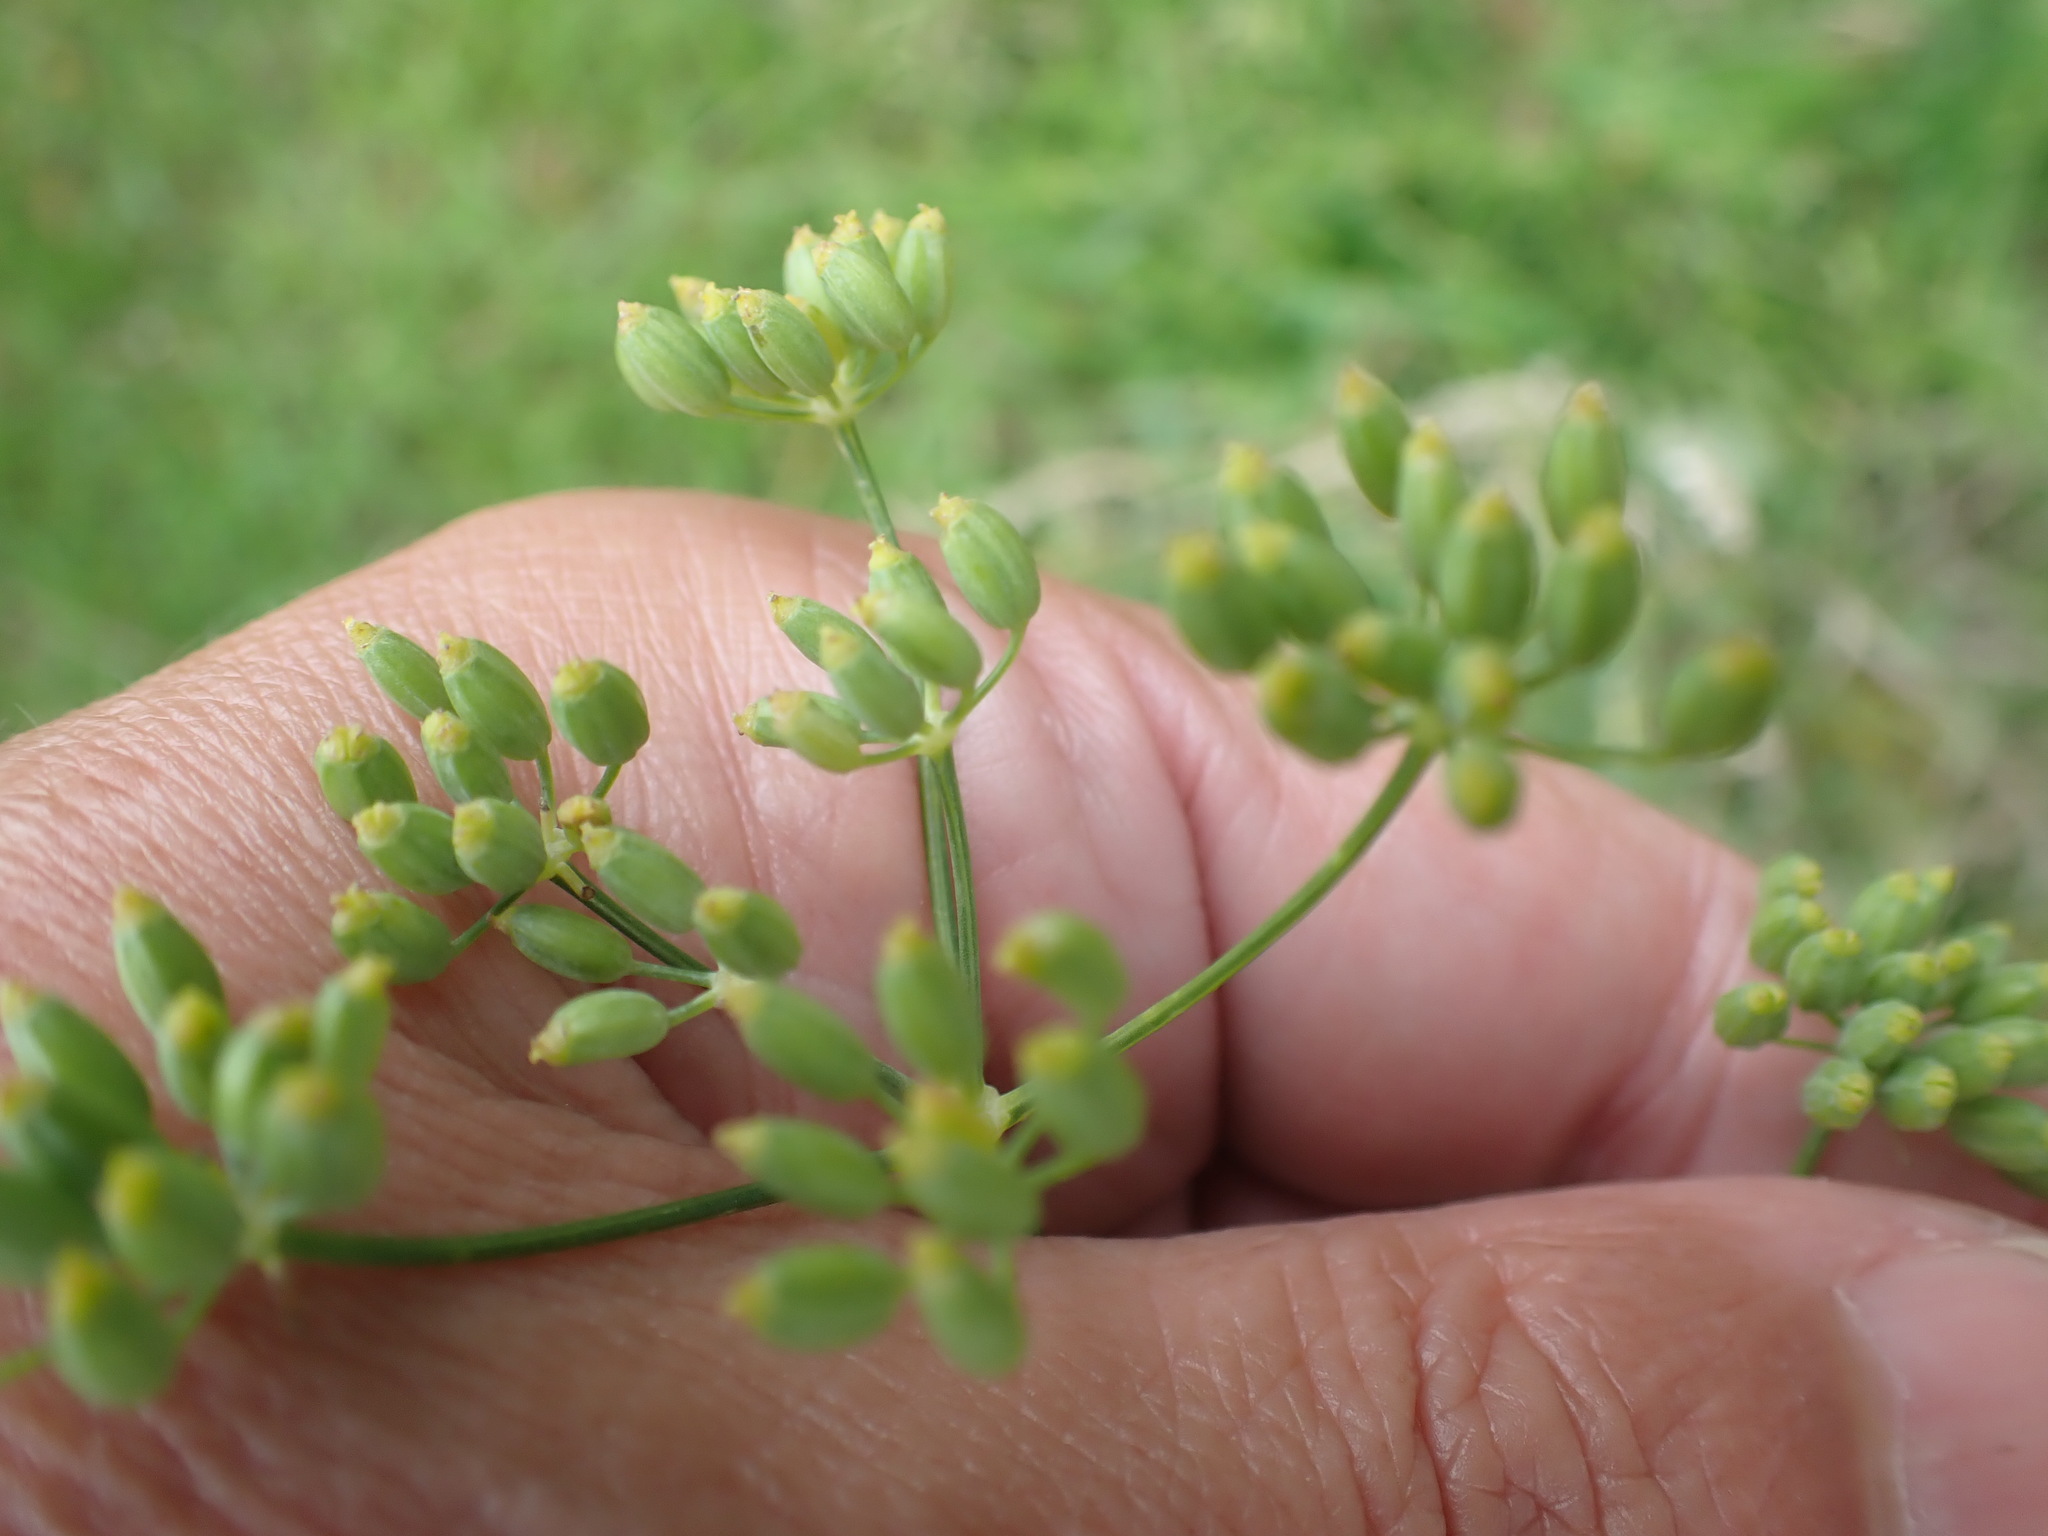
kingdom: Plantae
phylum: Tracheophyta
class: Magnoliopsida
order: Apiales
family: Apiaceae
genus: Foeniculum
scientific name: Foeniculum vulgare
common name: Fennel
